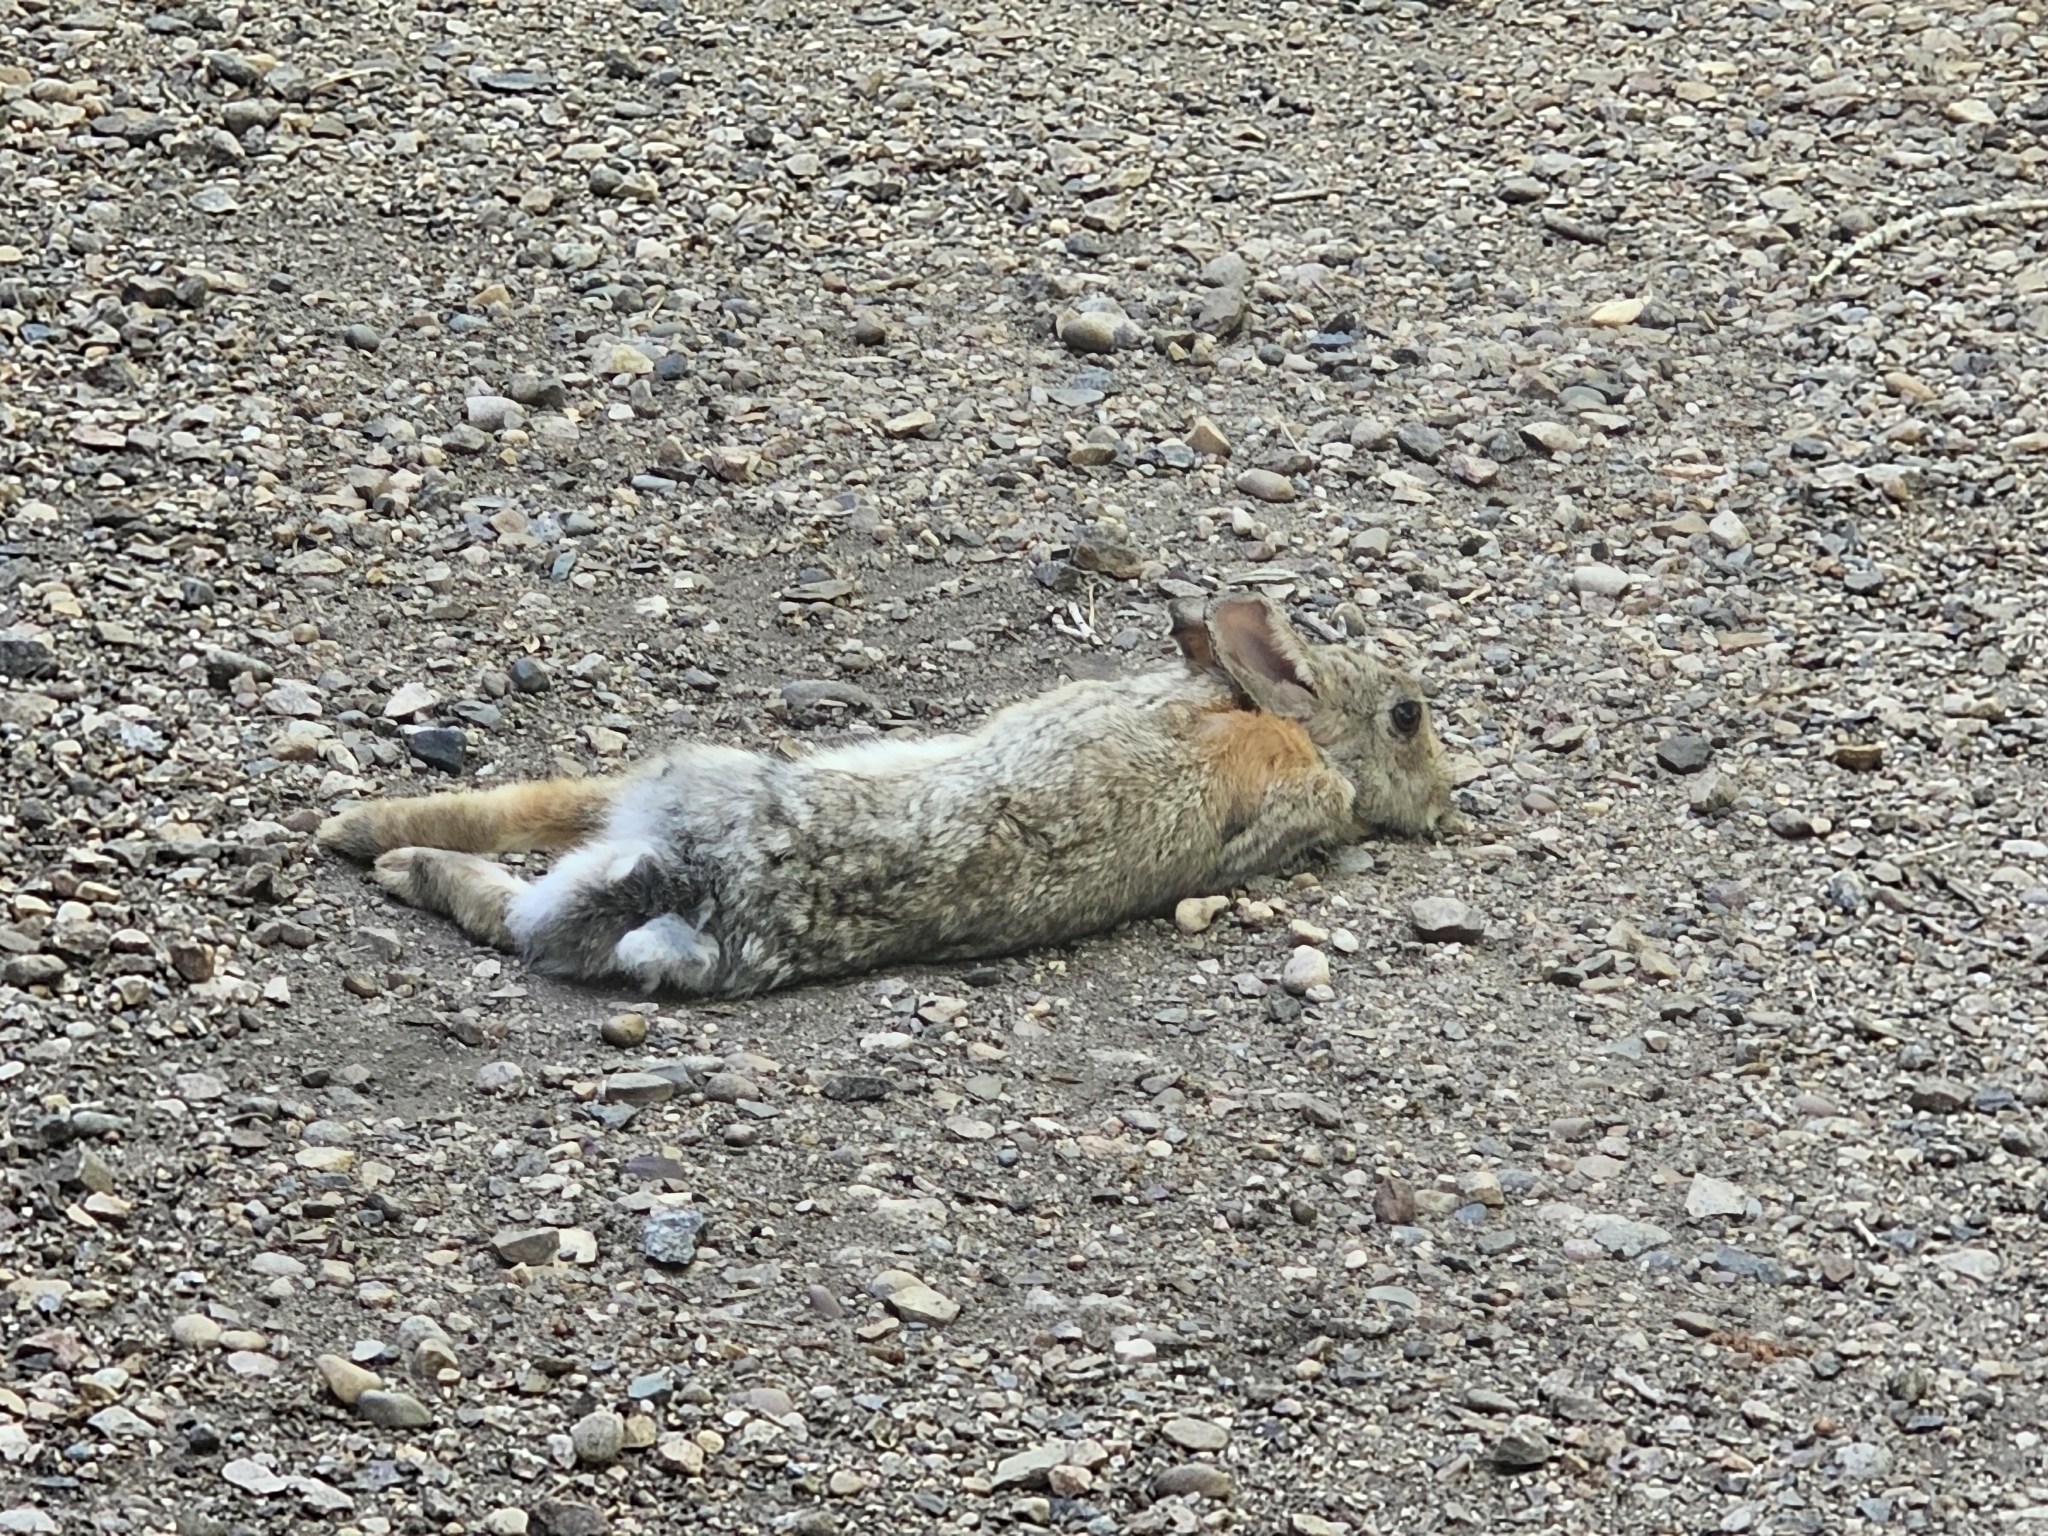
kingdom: Animalia
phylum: Chordata
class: Mammalia
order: Lagomorpha
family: Leporidae
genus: Sylvilagus
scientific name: Sylvilagus nuttallii
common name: Mountain cottontail
